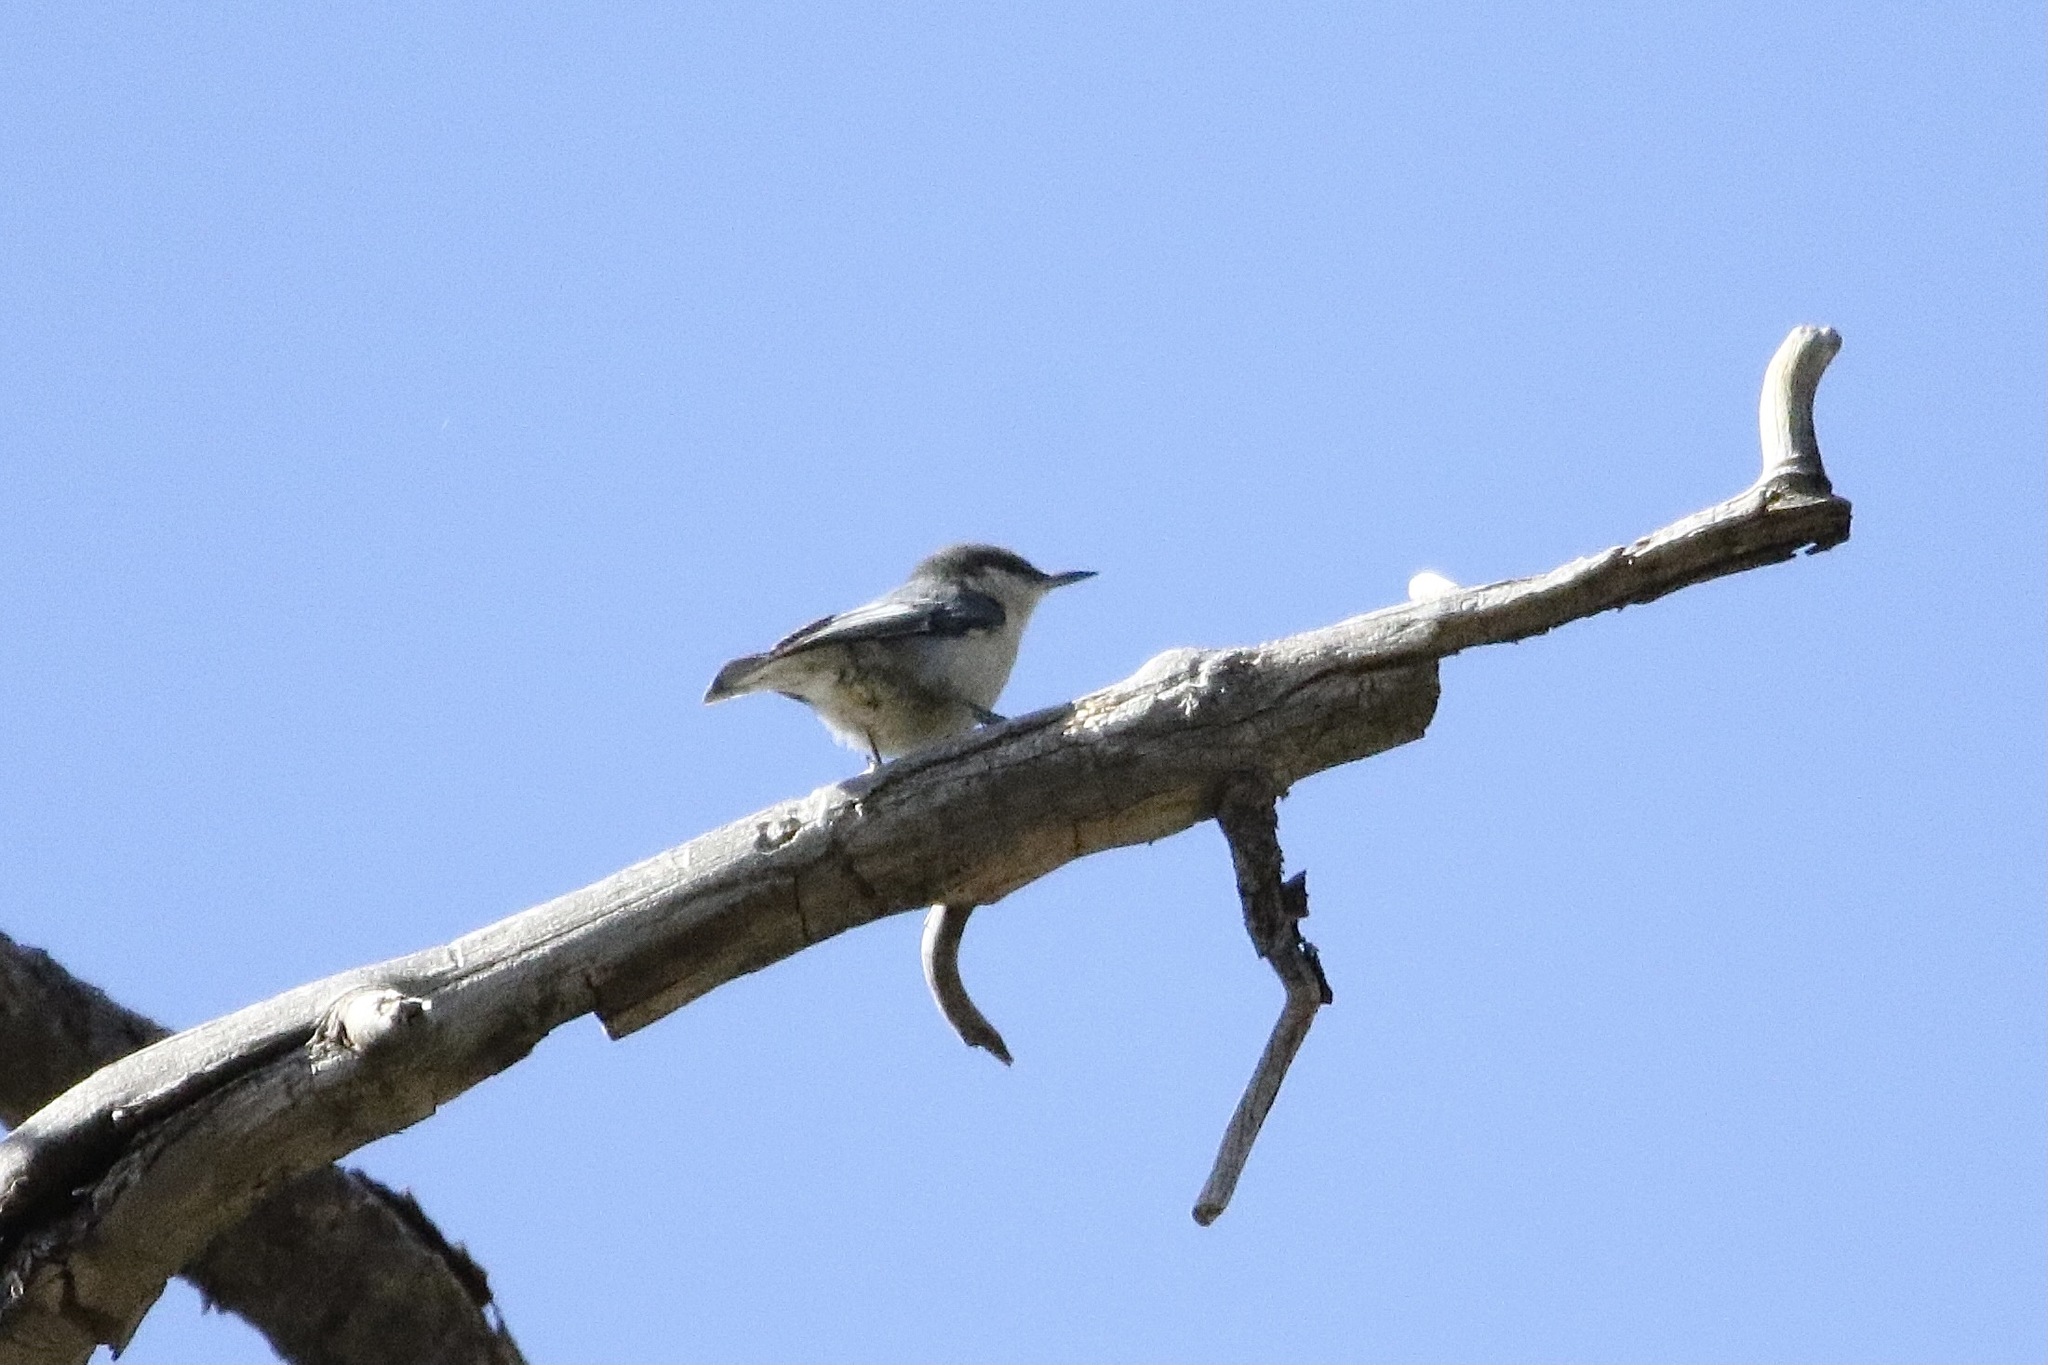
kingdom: Animalia
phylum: Chordata
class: Aves
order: Passeriformes
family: Sittidae
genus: Sitta
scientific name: Sitta pygmaea
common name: Pygmy nuthatch
